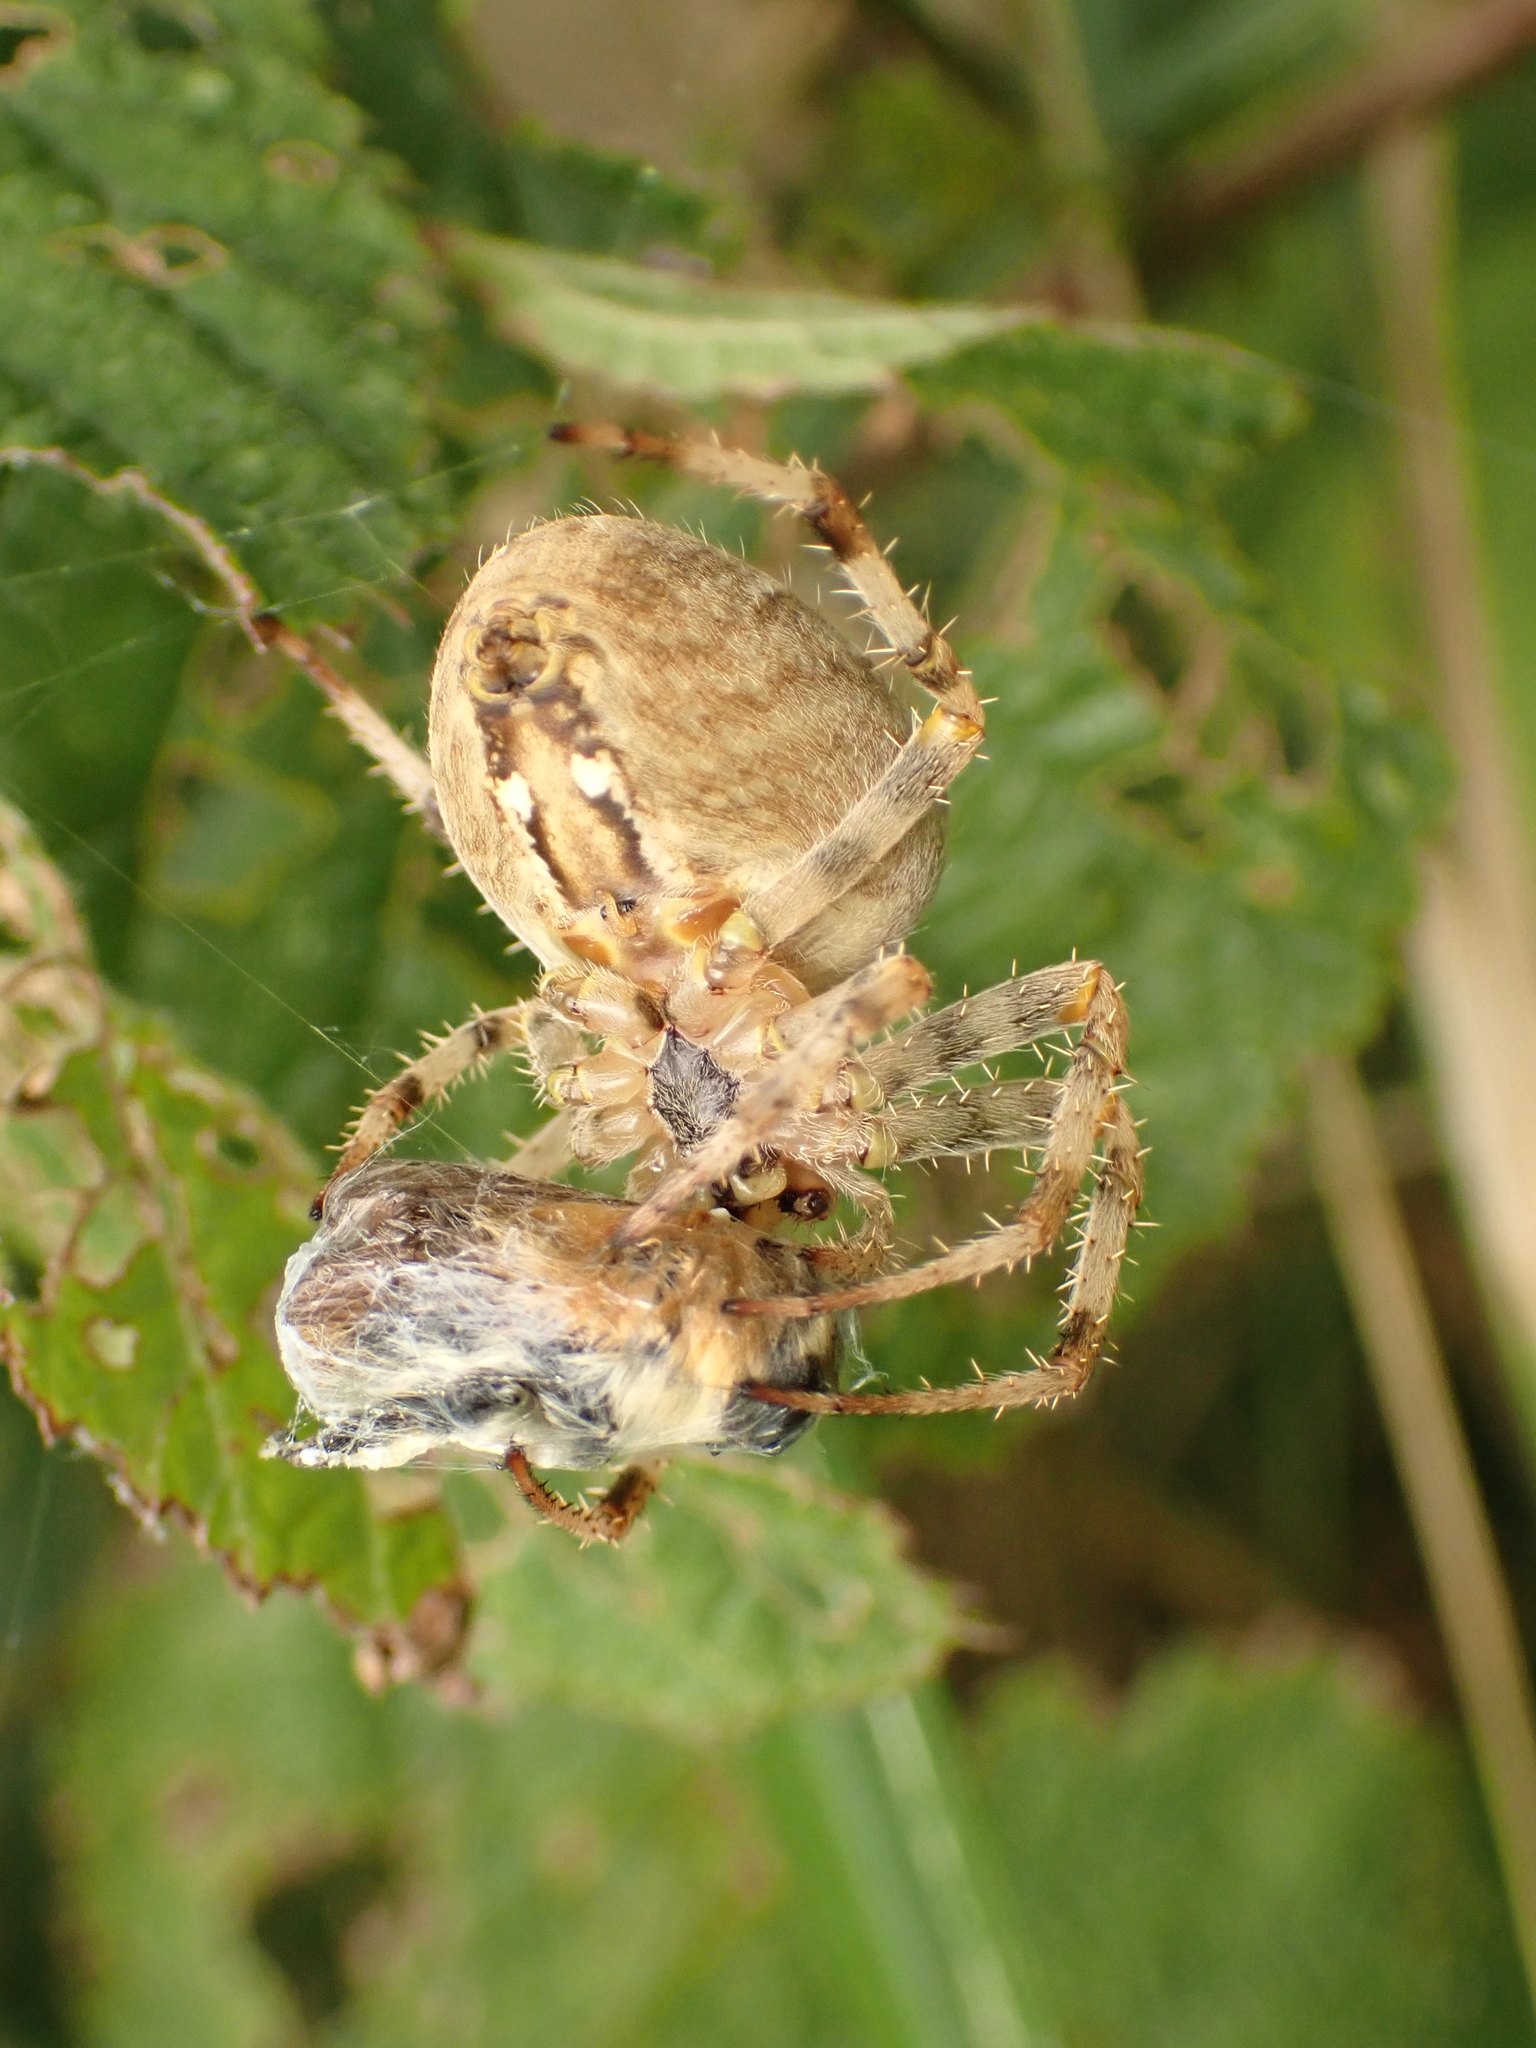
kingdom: Animalia
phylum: Arthropoda
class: Arachnida
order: Araneae
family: Araneidae
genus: Araneus
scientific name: Araneus diadematus
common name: Cross orbweaver
